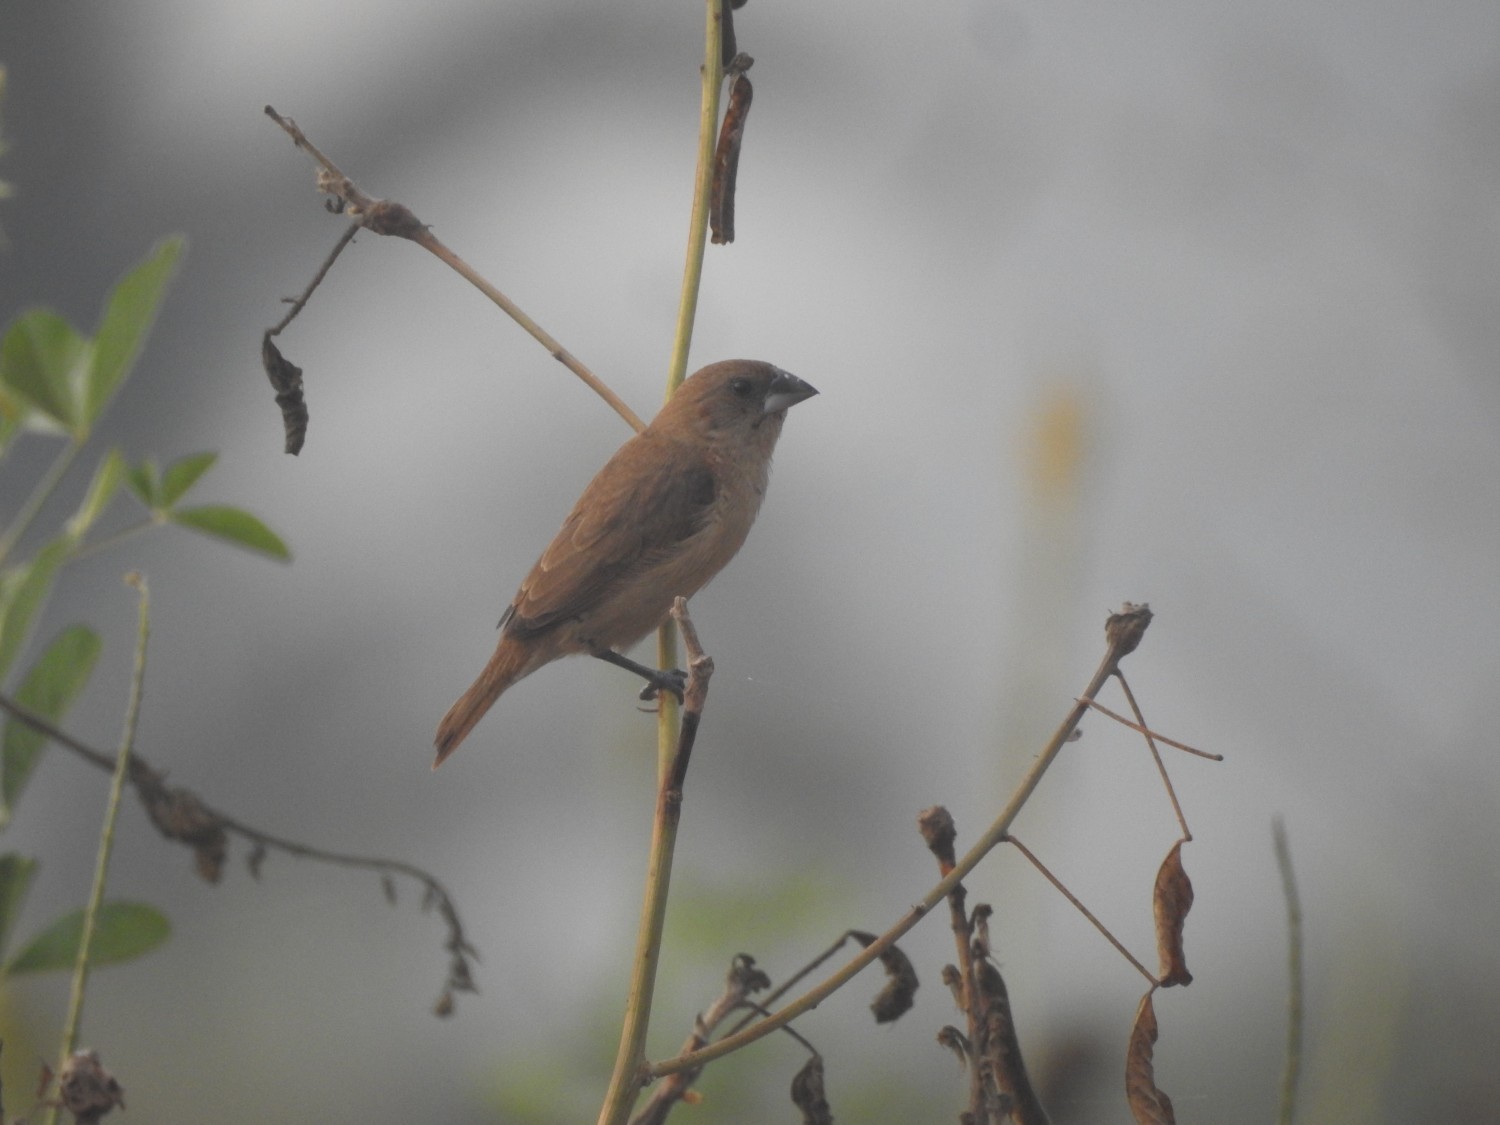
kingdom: Animalia
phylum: Chordata
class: Aves
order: Passeriformes
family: Estrildidae
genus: Lonchura
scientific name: Lonchura punctulata
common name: Scaly-breasted munia
